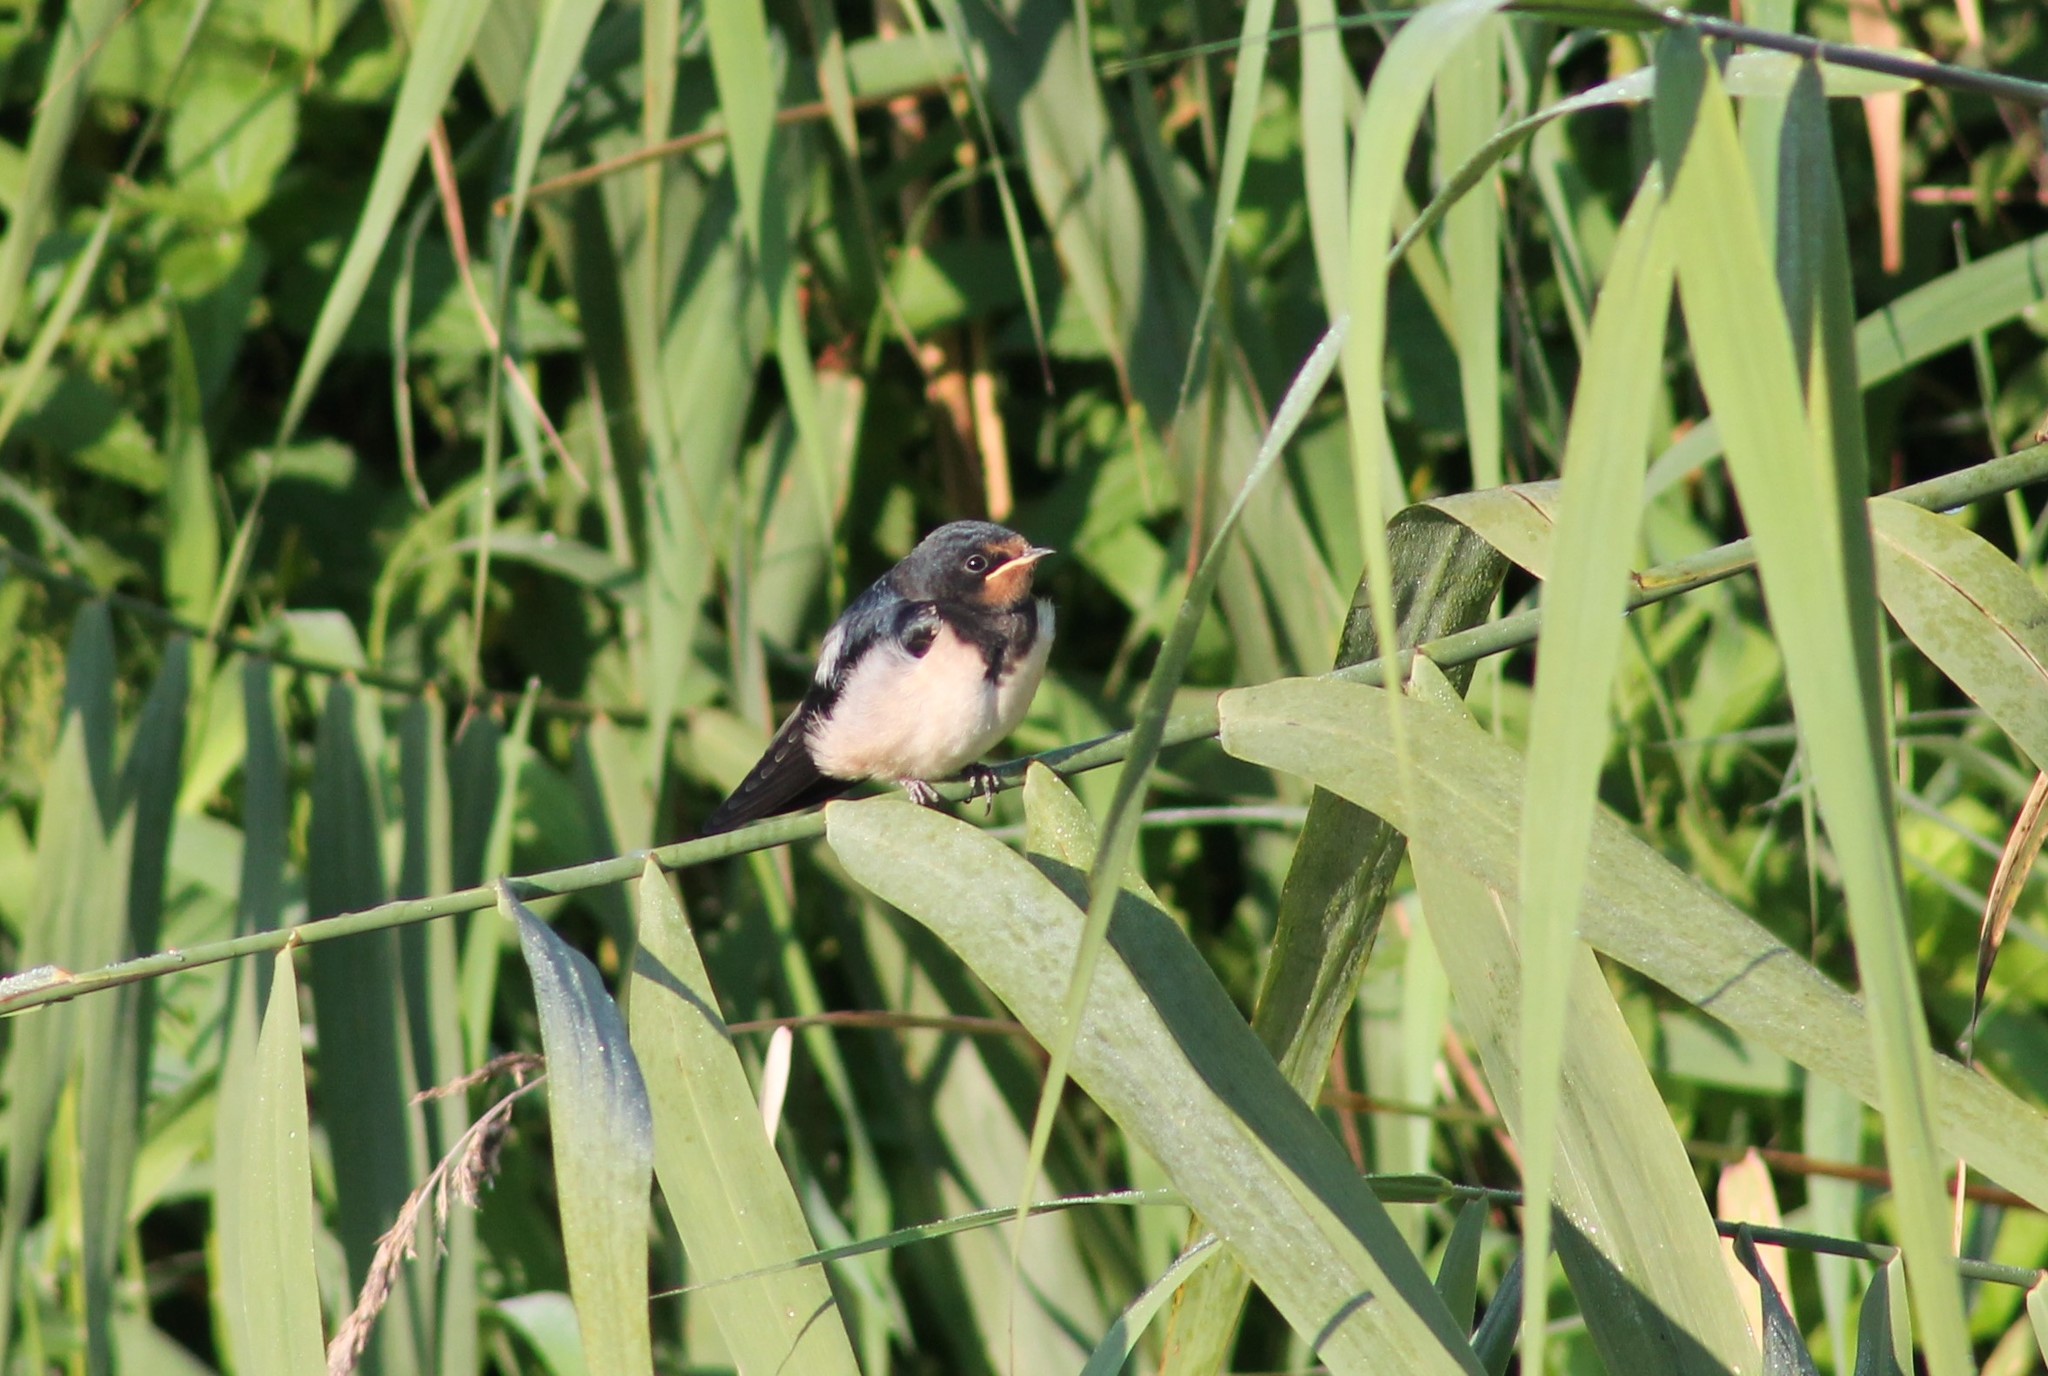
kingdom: Animalia
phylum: Chordata
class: Aves
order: Passeriformes
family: Hirundinidae
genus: Hirundo
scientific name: Hirundo rustica
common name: Barn swallow
